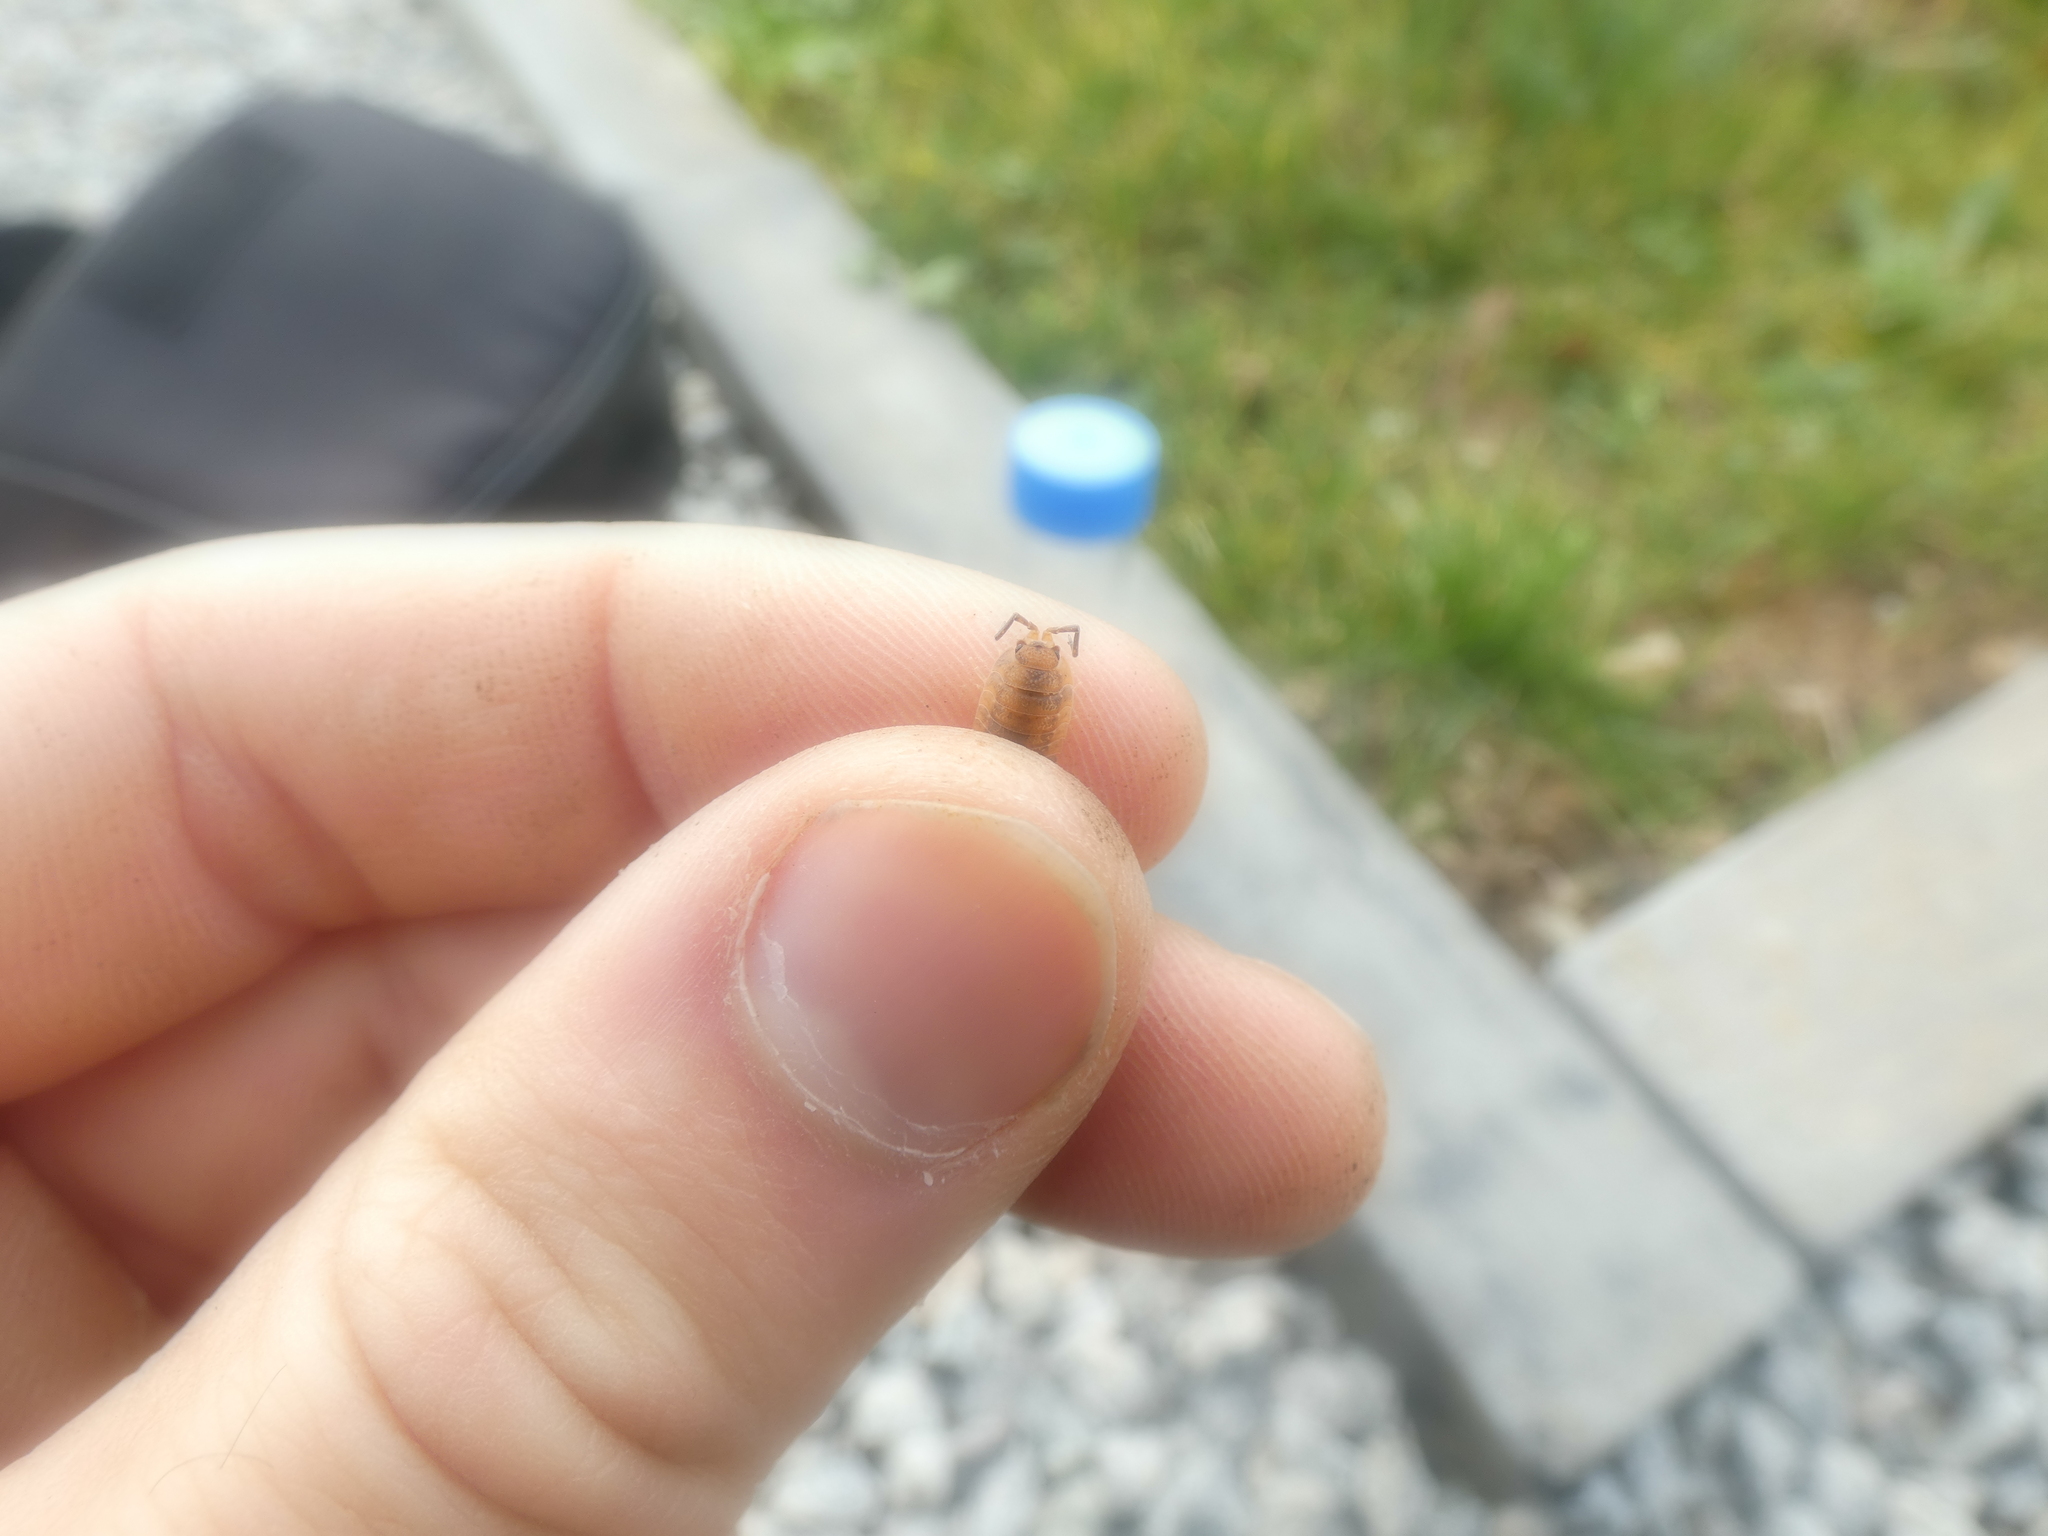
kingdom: Animalia
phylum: Arthropoda
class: Malacostraca
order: Isopoda
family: Porcellionidae
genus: Porcellio
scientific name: Porcellio scaber
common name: Common rough woodlouse
